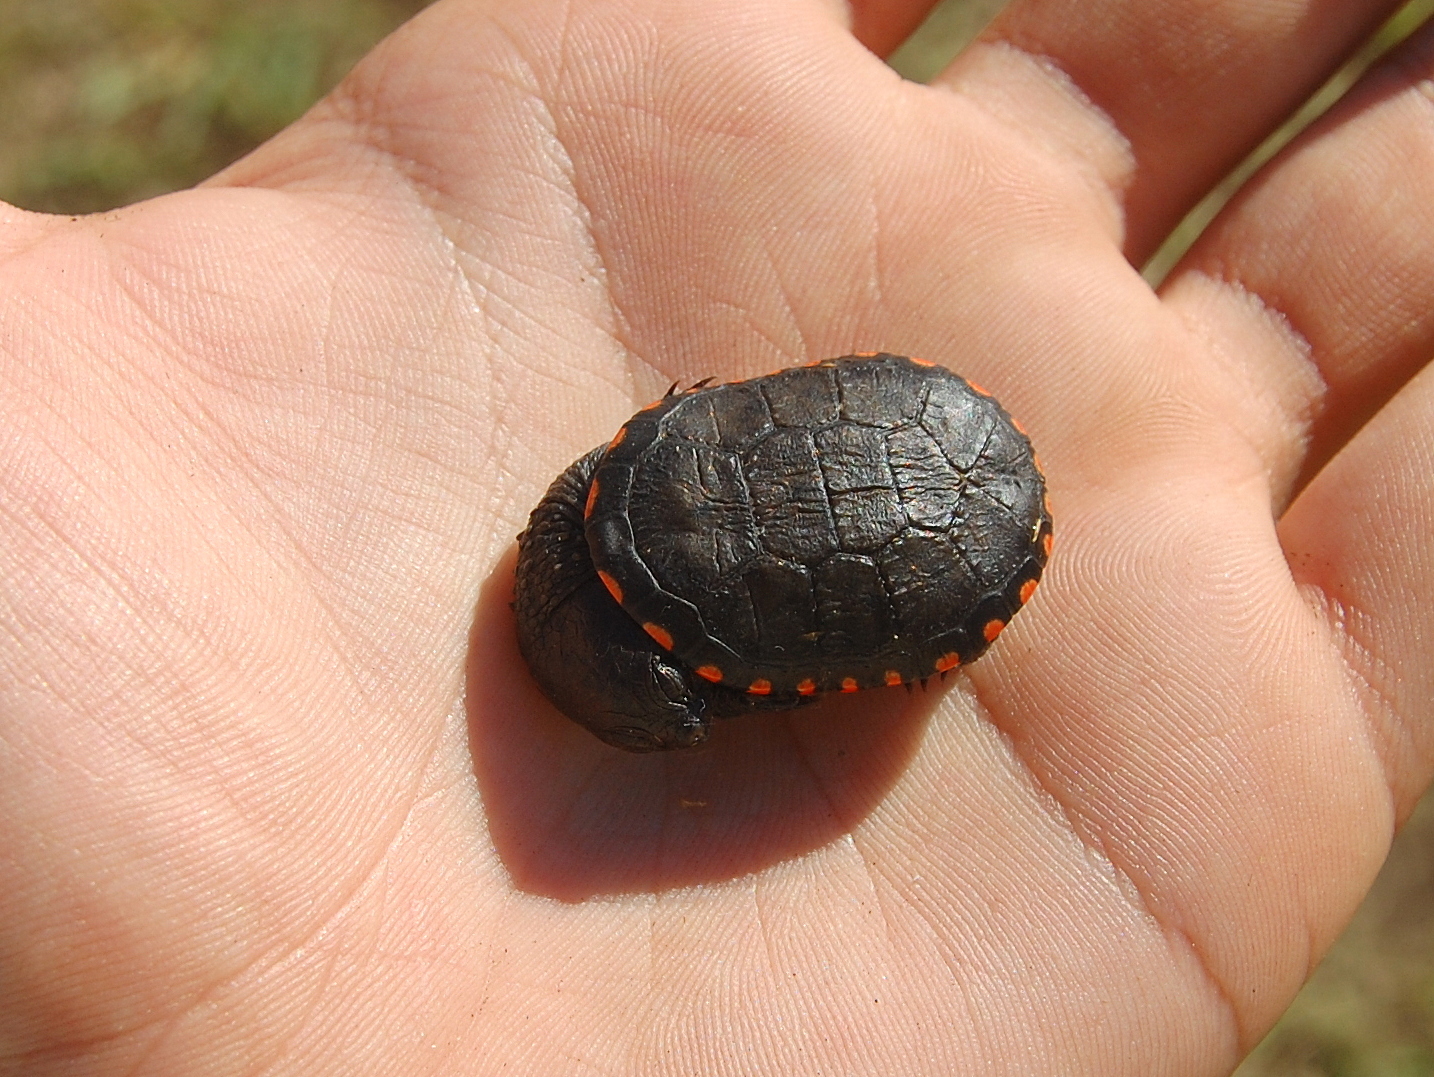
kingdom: Animalia
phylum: Chordata
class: Testudines
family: Chelidae
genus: Acanthochelys
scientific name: Acanthochelys spixii
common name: Black spine-neck swamp turtle
